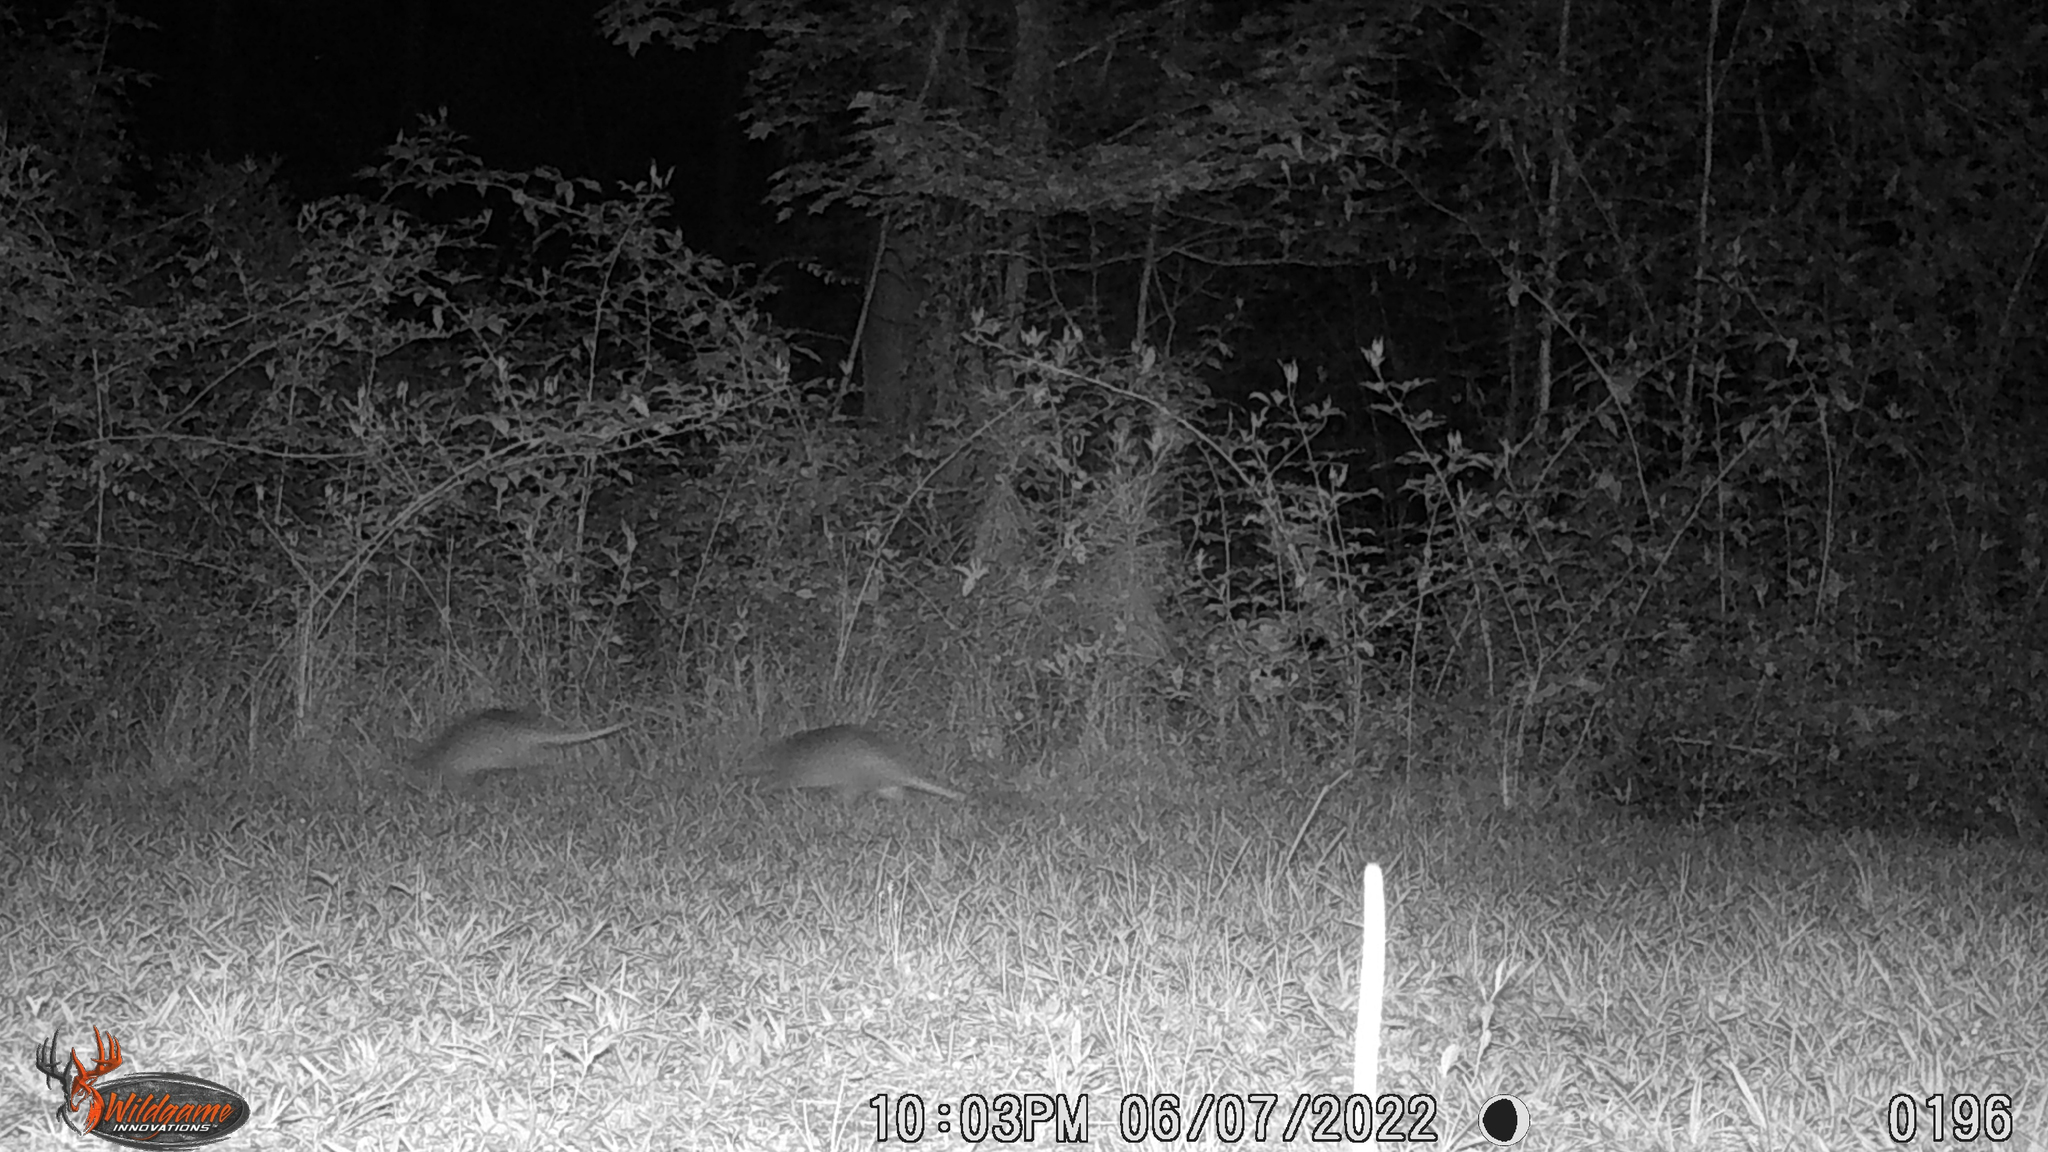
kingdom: Animalia
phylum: Chordata
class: Mammalia
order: Cingulata
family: Dasypodidae
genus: Dasypus
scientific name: Dasypus novemcinctus
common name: Nine-banded armadillo
